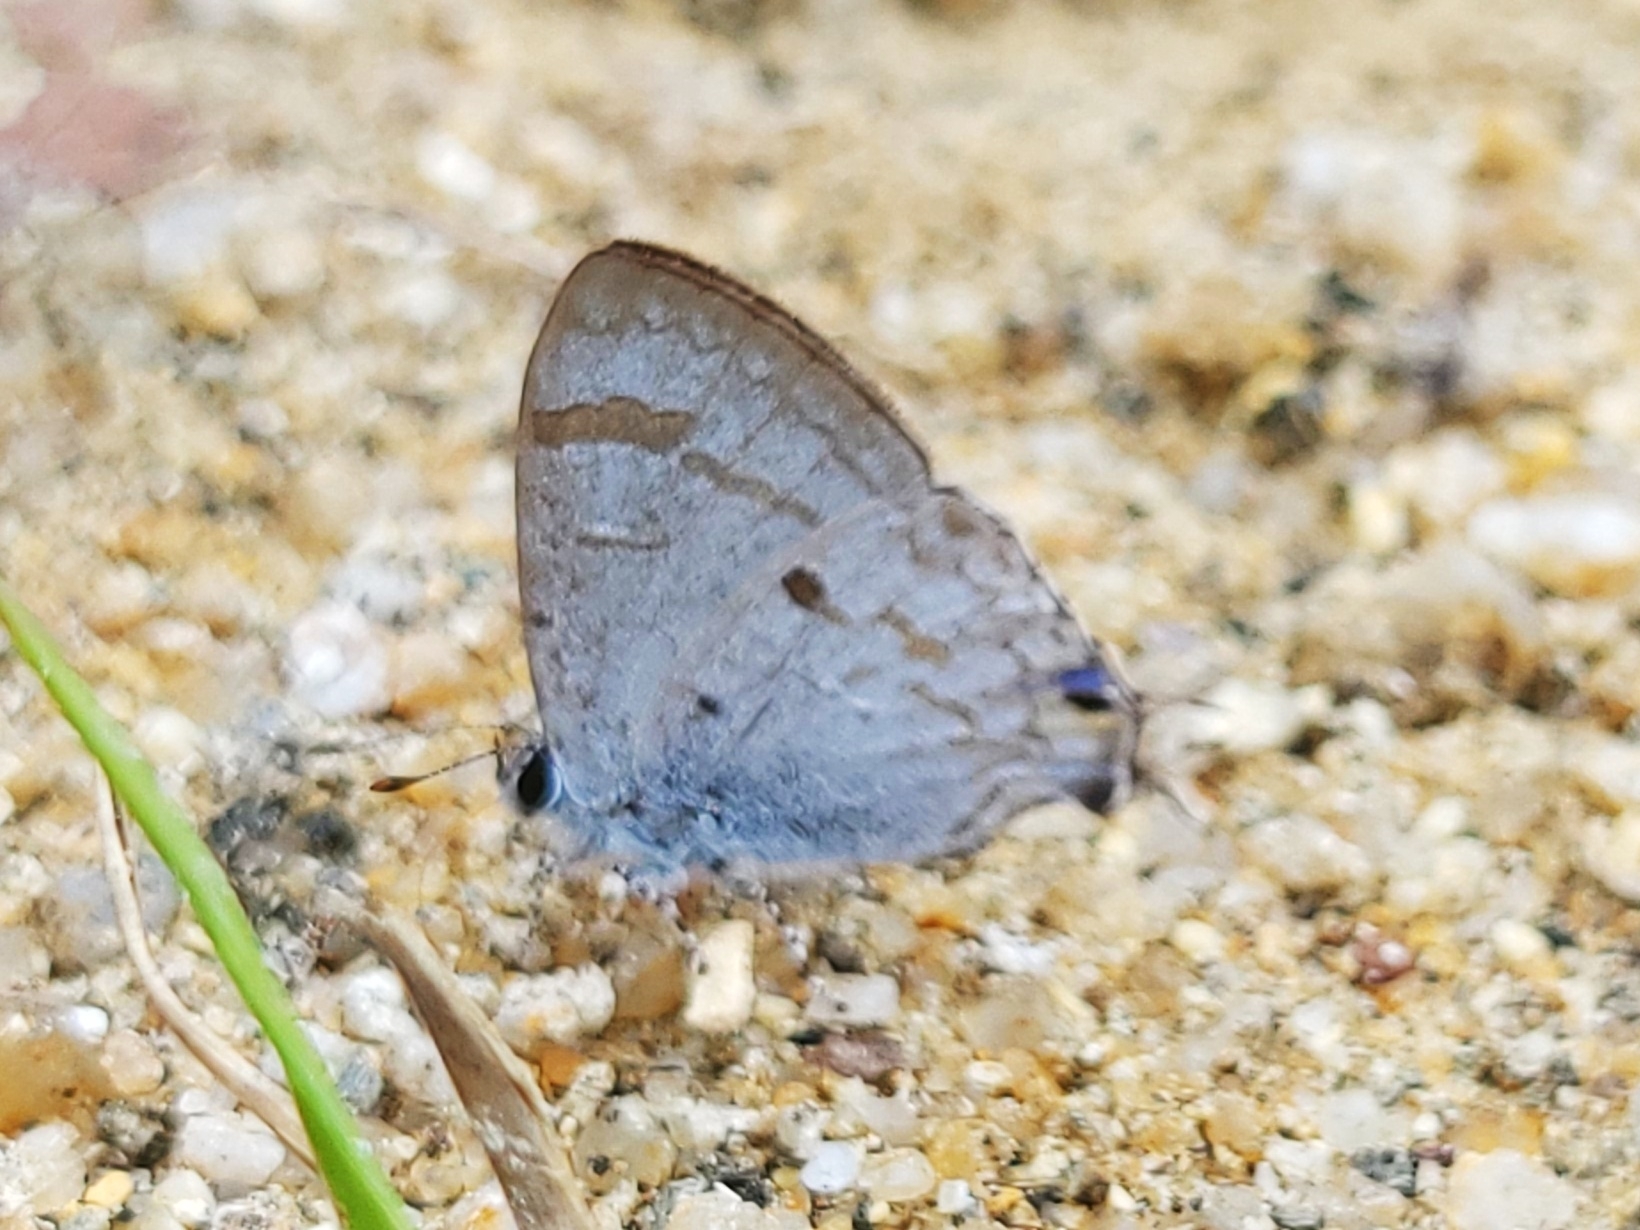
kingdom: Animalia
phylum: Arthropoda
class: Insecta
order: Lepidoptera
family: Lycaenidae
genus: Hypolycaena
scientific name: Hypolycaena
